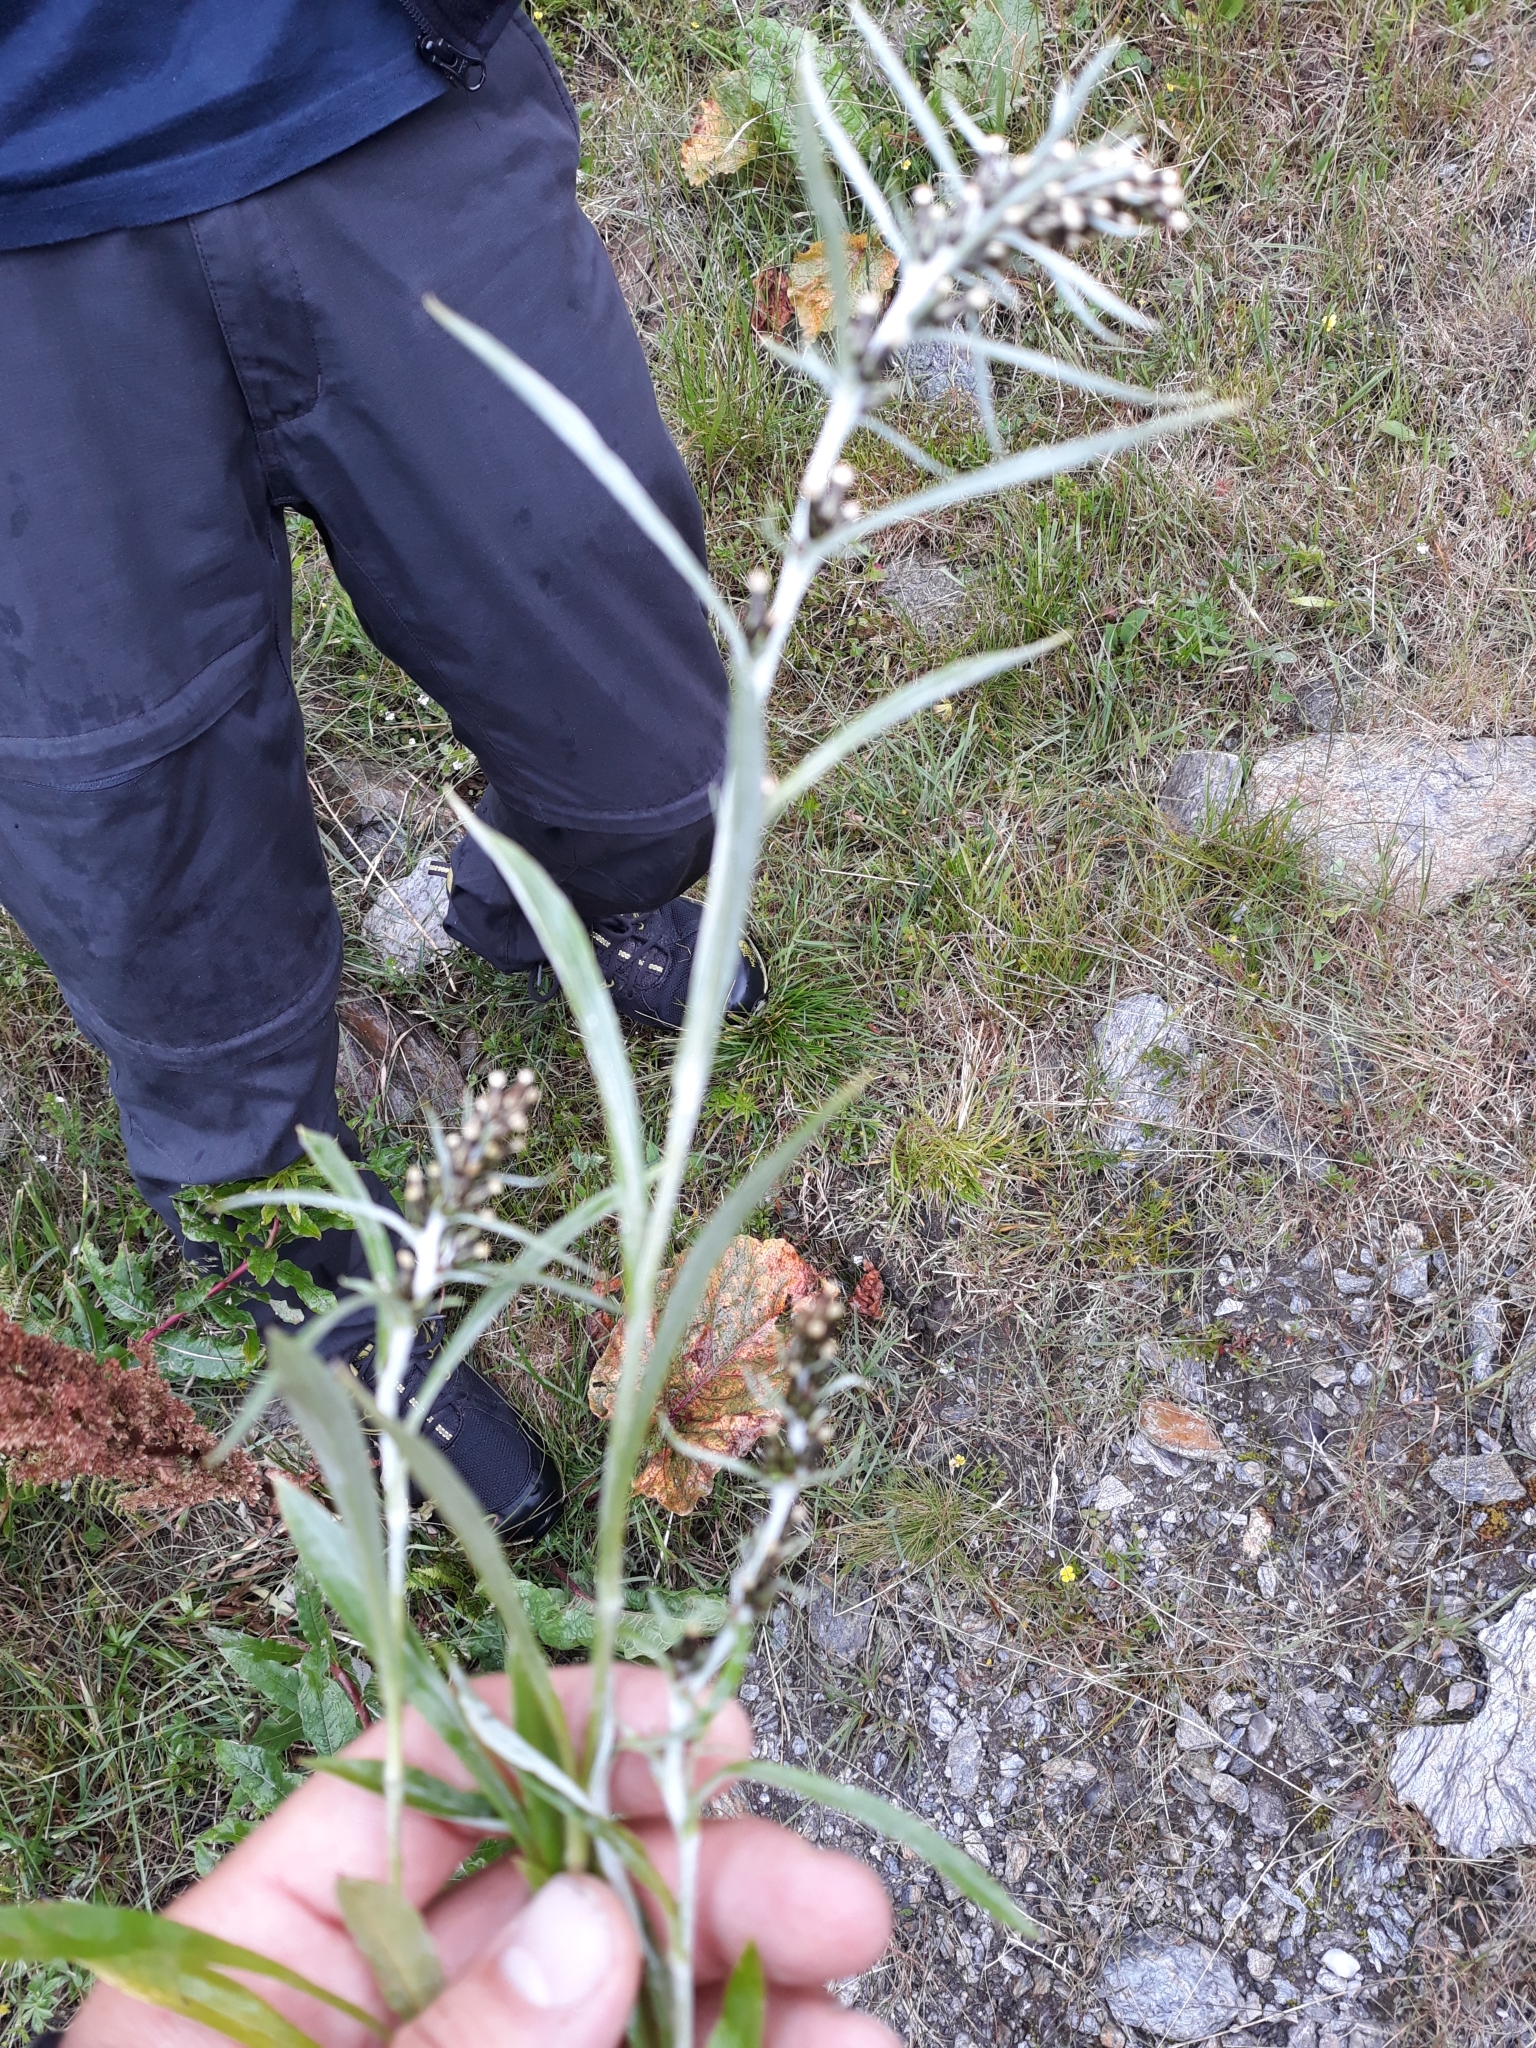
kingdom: Plantae
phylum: Tracheophyta
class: Magnoliopsida
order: Asterales
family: Asteraceae
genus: Omalotheca
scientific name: Omalotheca norvegica
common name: Norwegian arctic-cudweed
